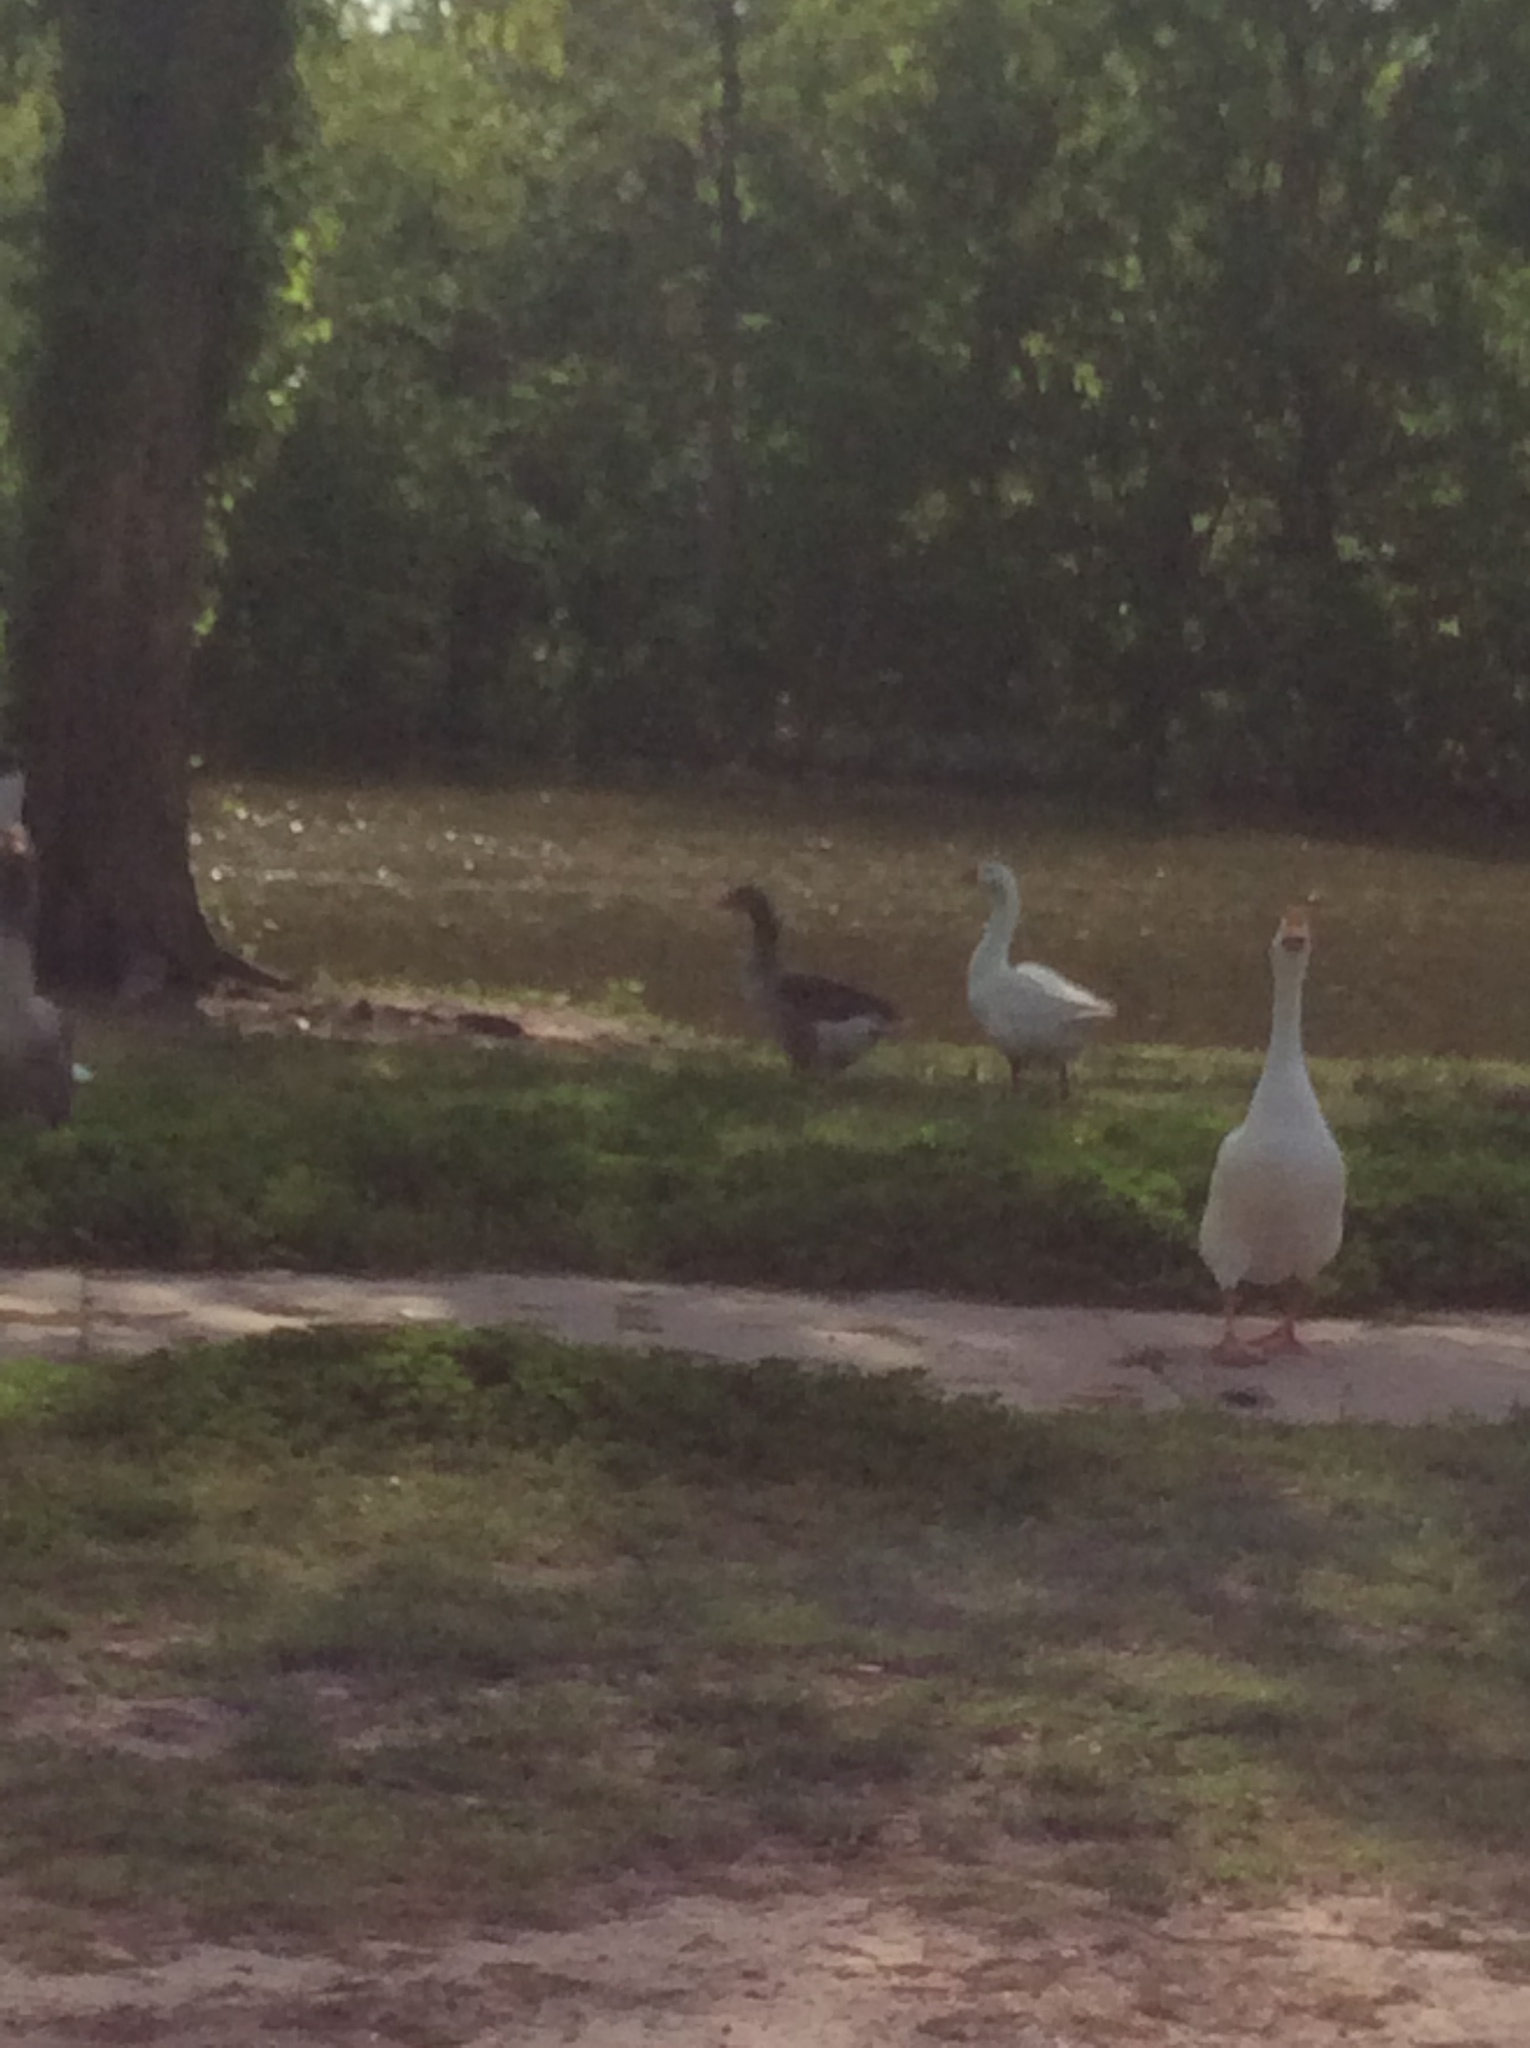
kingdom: Animalia
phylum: Chordata
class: Aves
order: Anseriformes
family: Anatidae
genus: Anas
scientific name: Anas platyrhynchos
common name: Mallard
